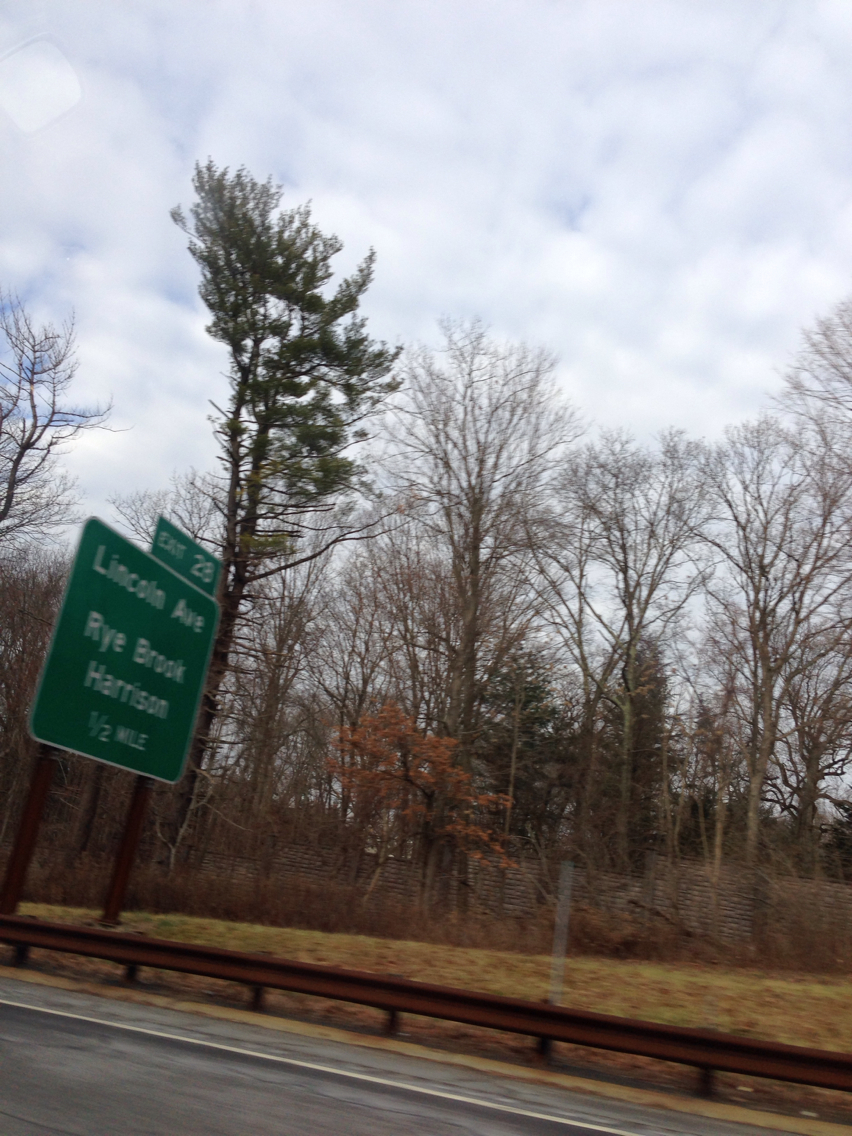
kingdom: Plantae
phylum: Tracheophyta
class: Pinopsida
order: Pinales
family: Pinaceae
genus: Pinus
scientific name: Pinus strobus
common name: Weymouth pine
